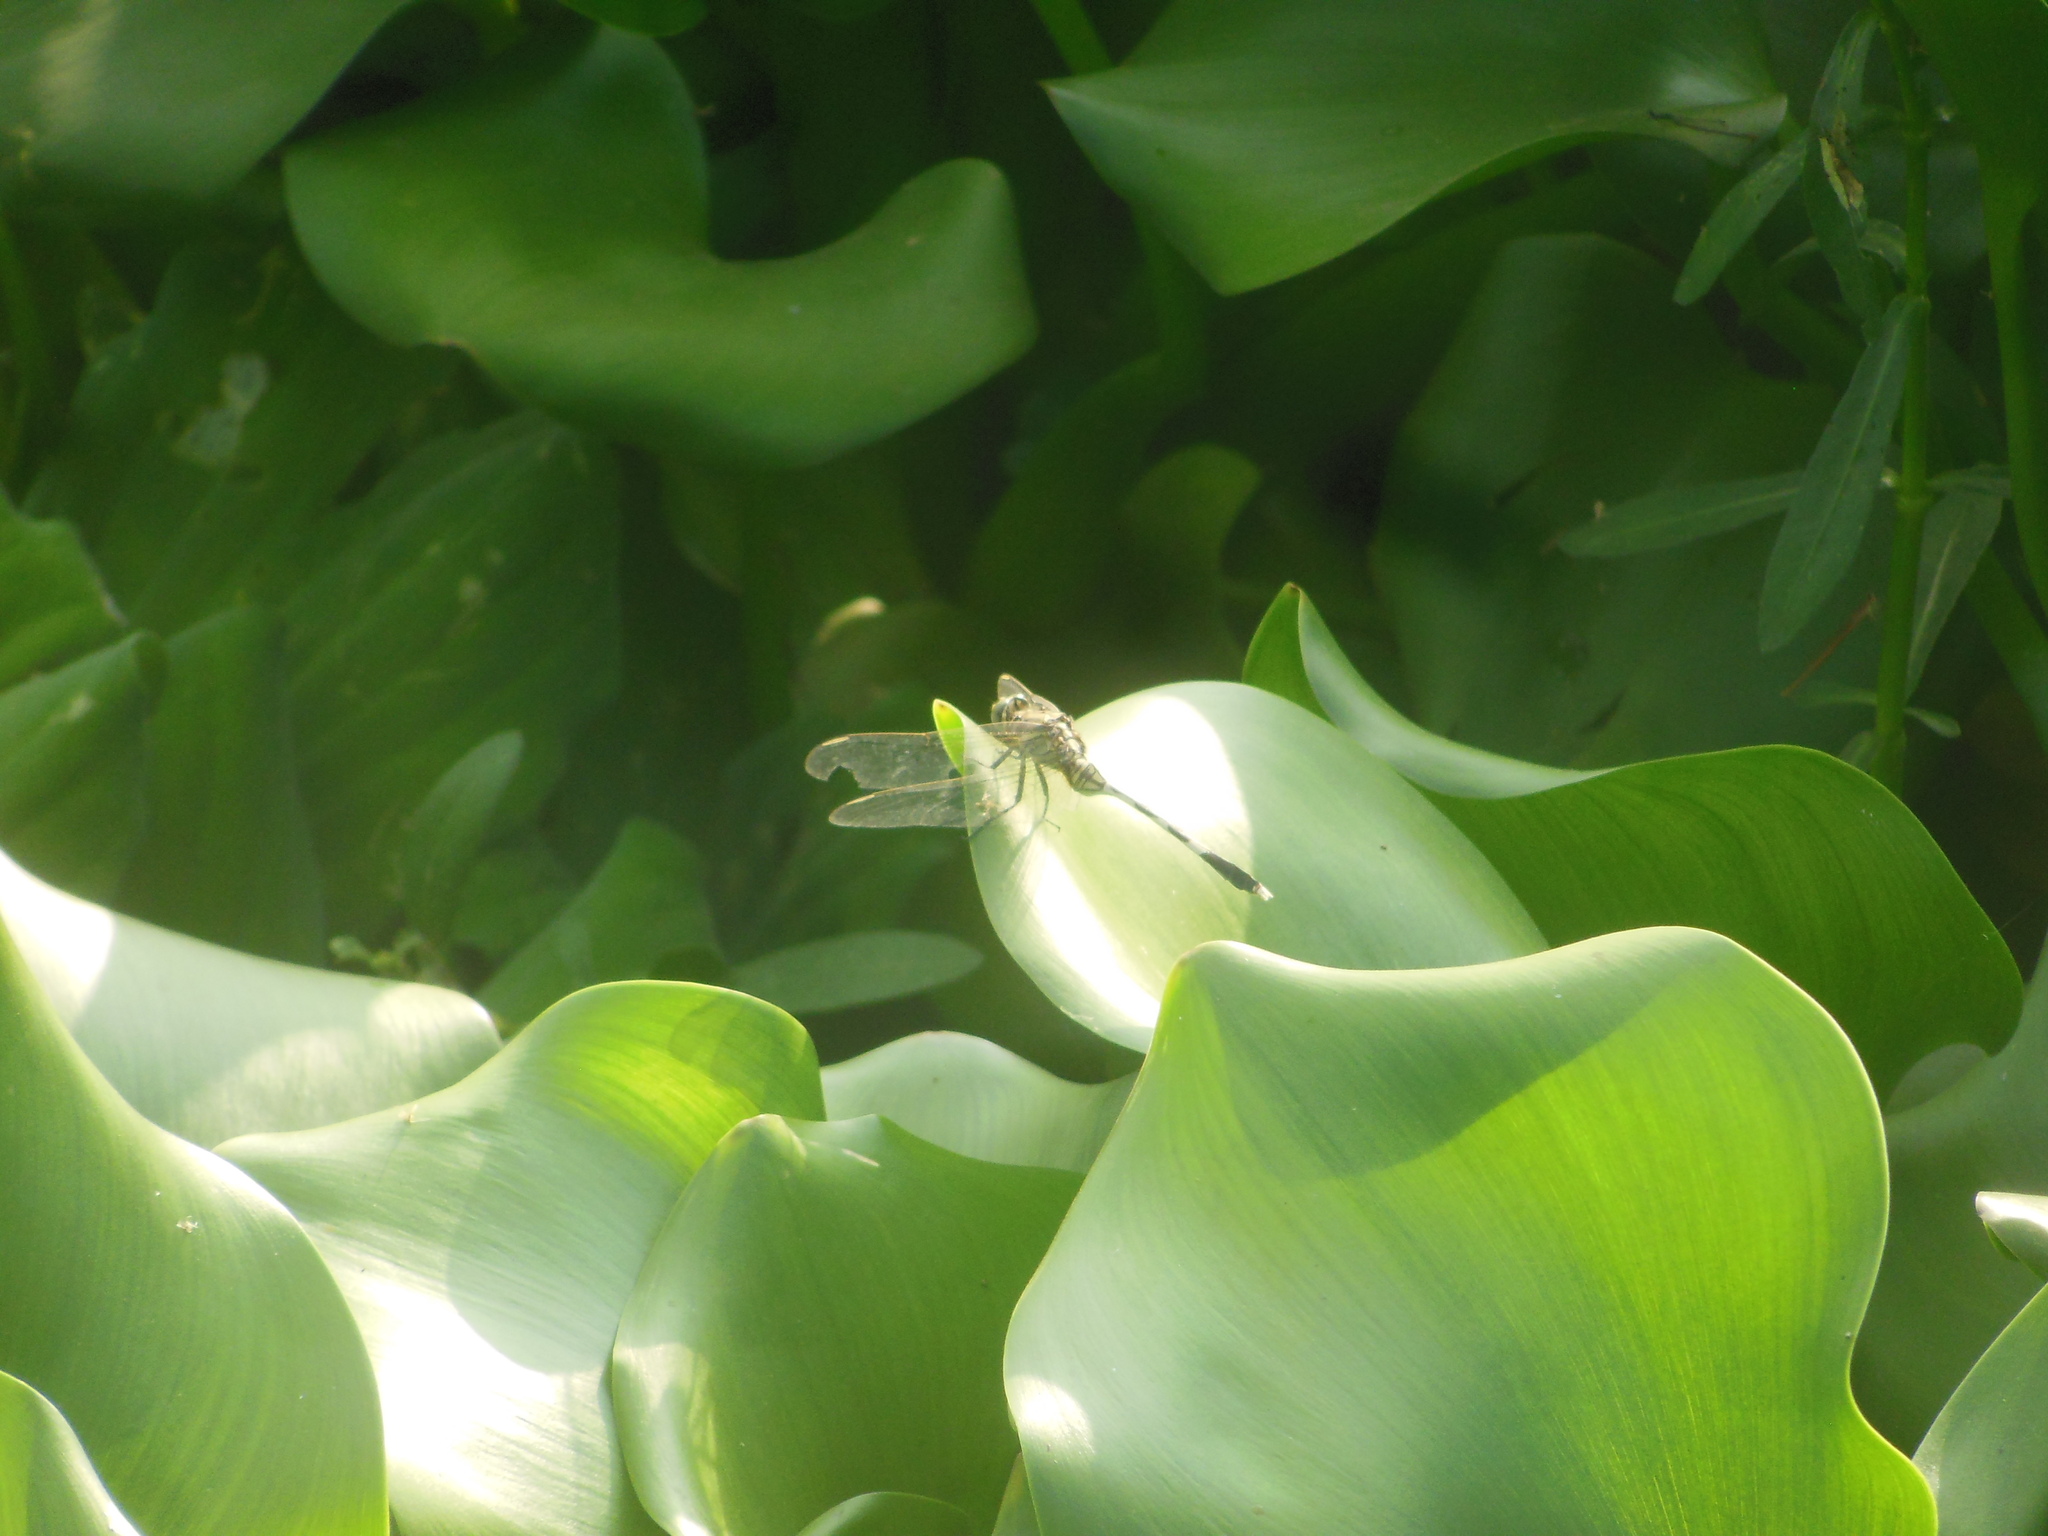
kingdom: Animalia
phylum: Arthropoda
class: Insecta
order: Odonata
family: Libellulidae
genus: Orthetrum
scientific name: Orthetrum sabina
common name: Slender skimmer
